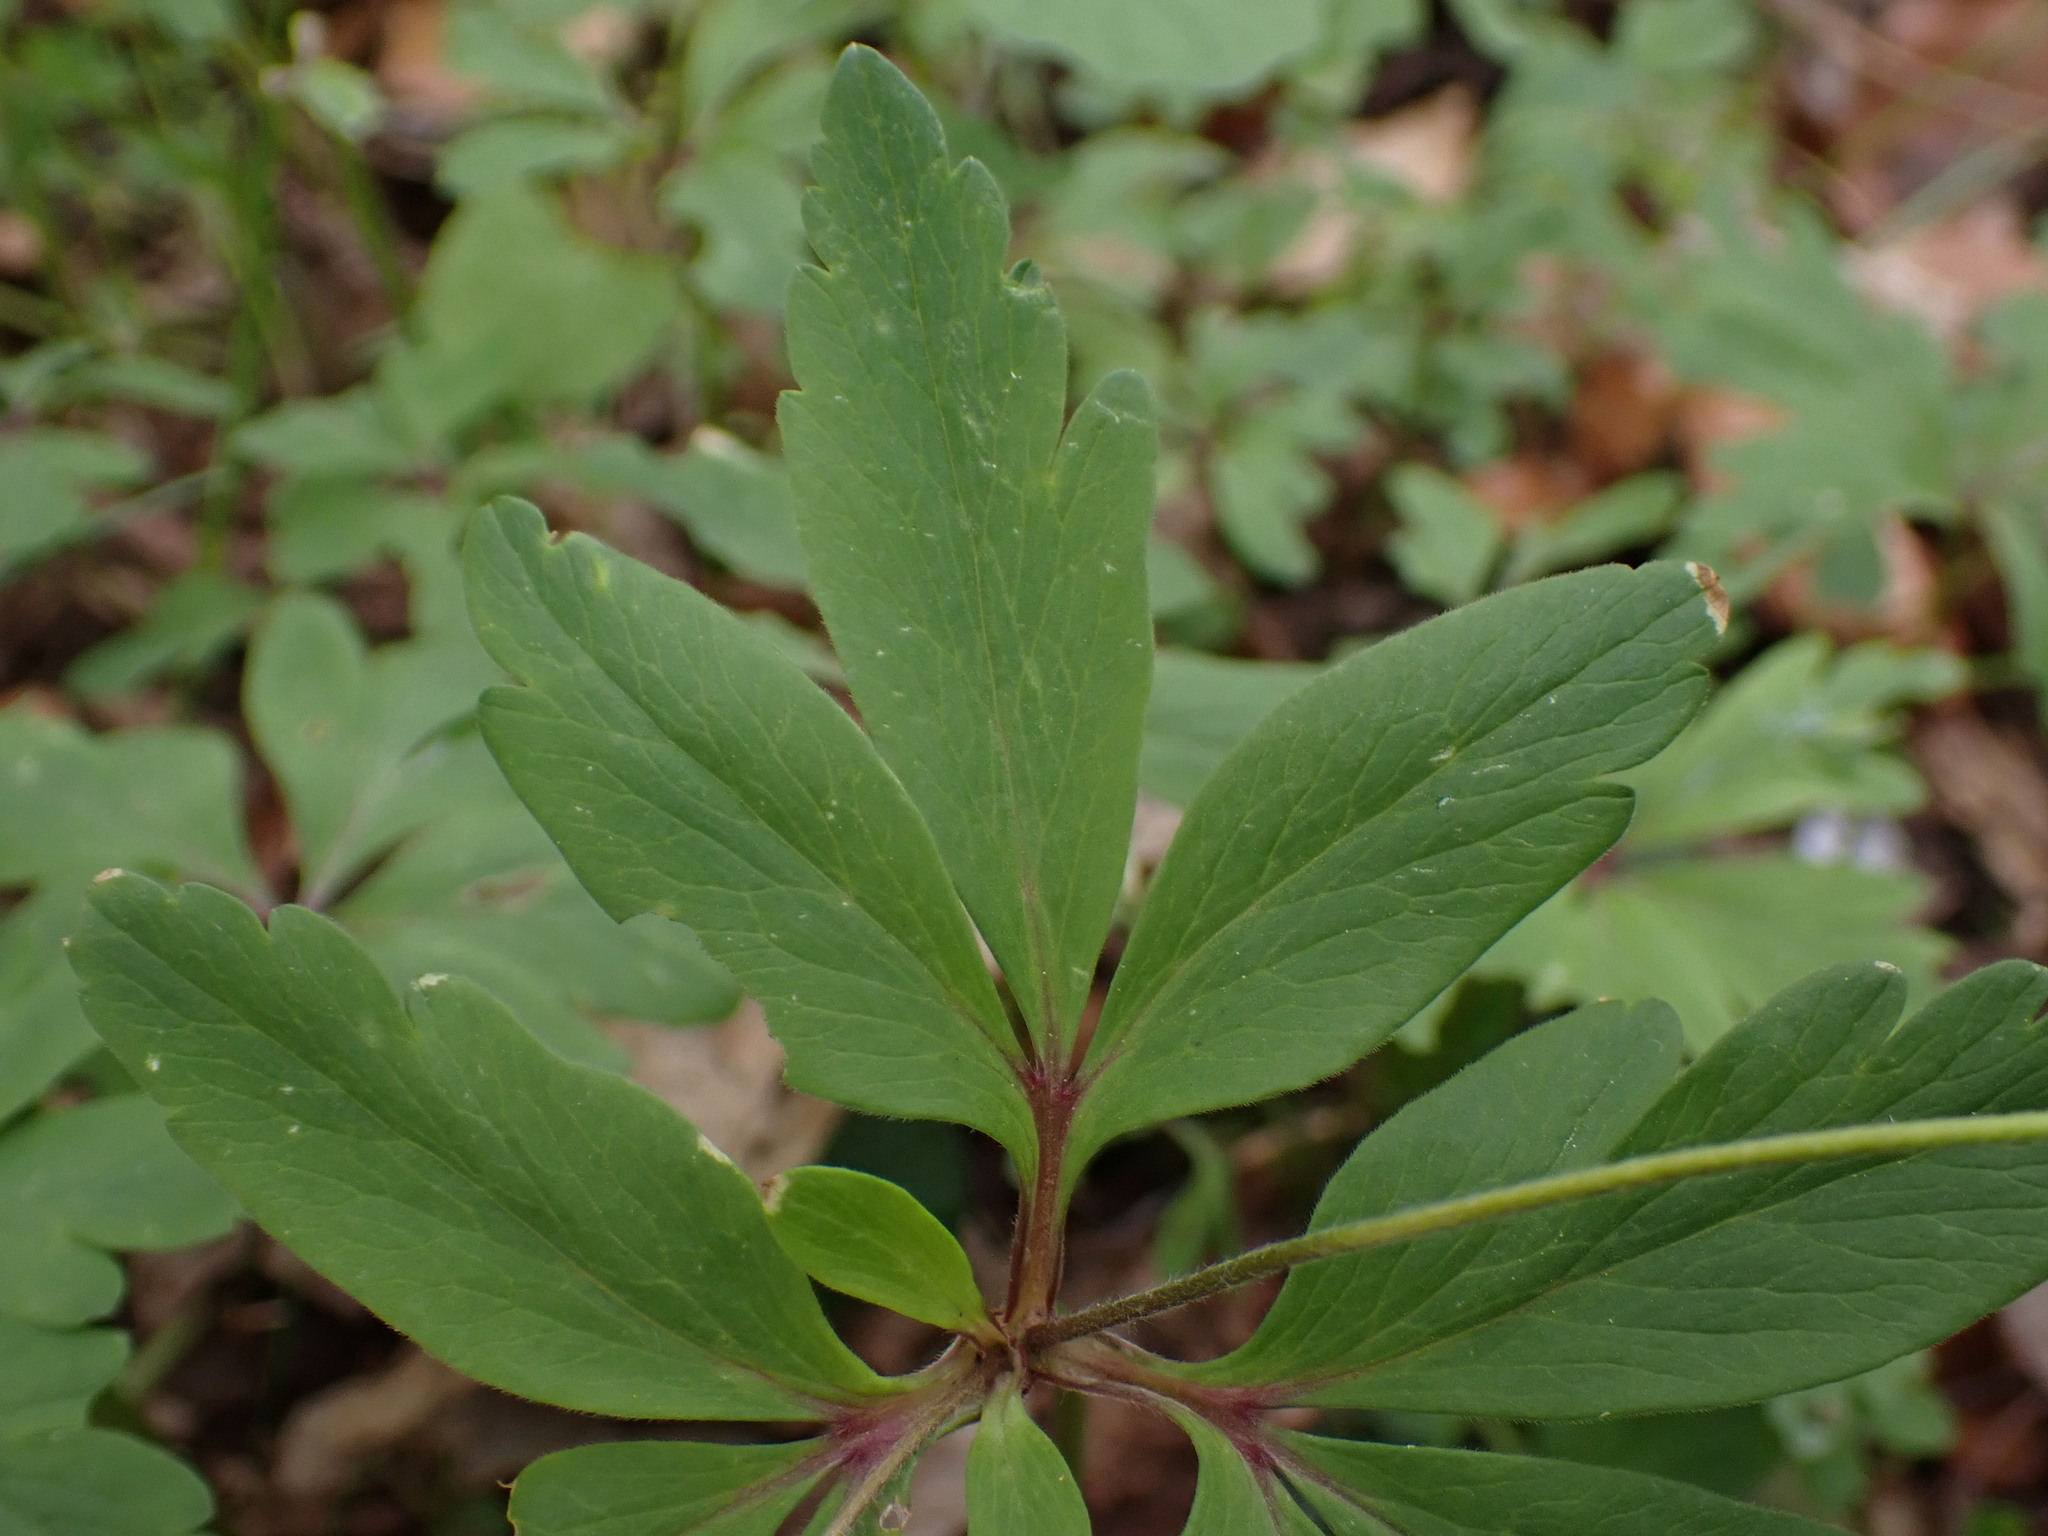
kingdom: Plantae
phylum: Tracheophyta
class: Magnoliopsida
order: Ranunculales
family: Ranunculaceae
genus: Anemone
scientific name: Anemone ranunculoides
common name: Yellow anemone
